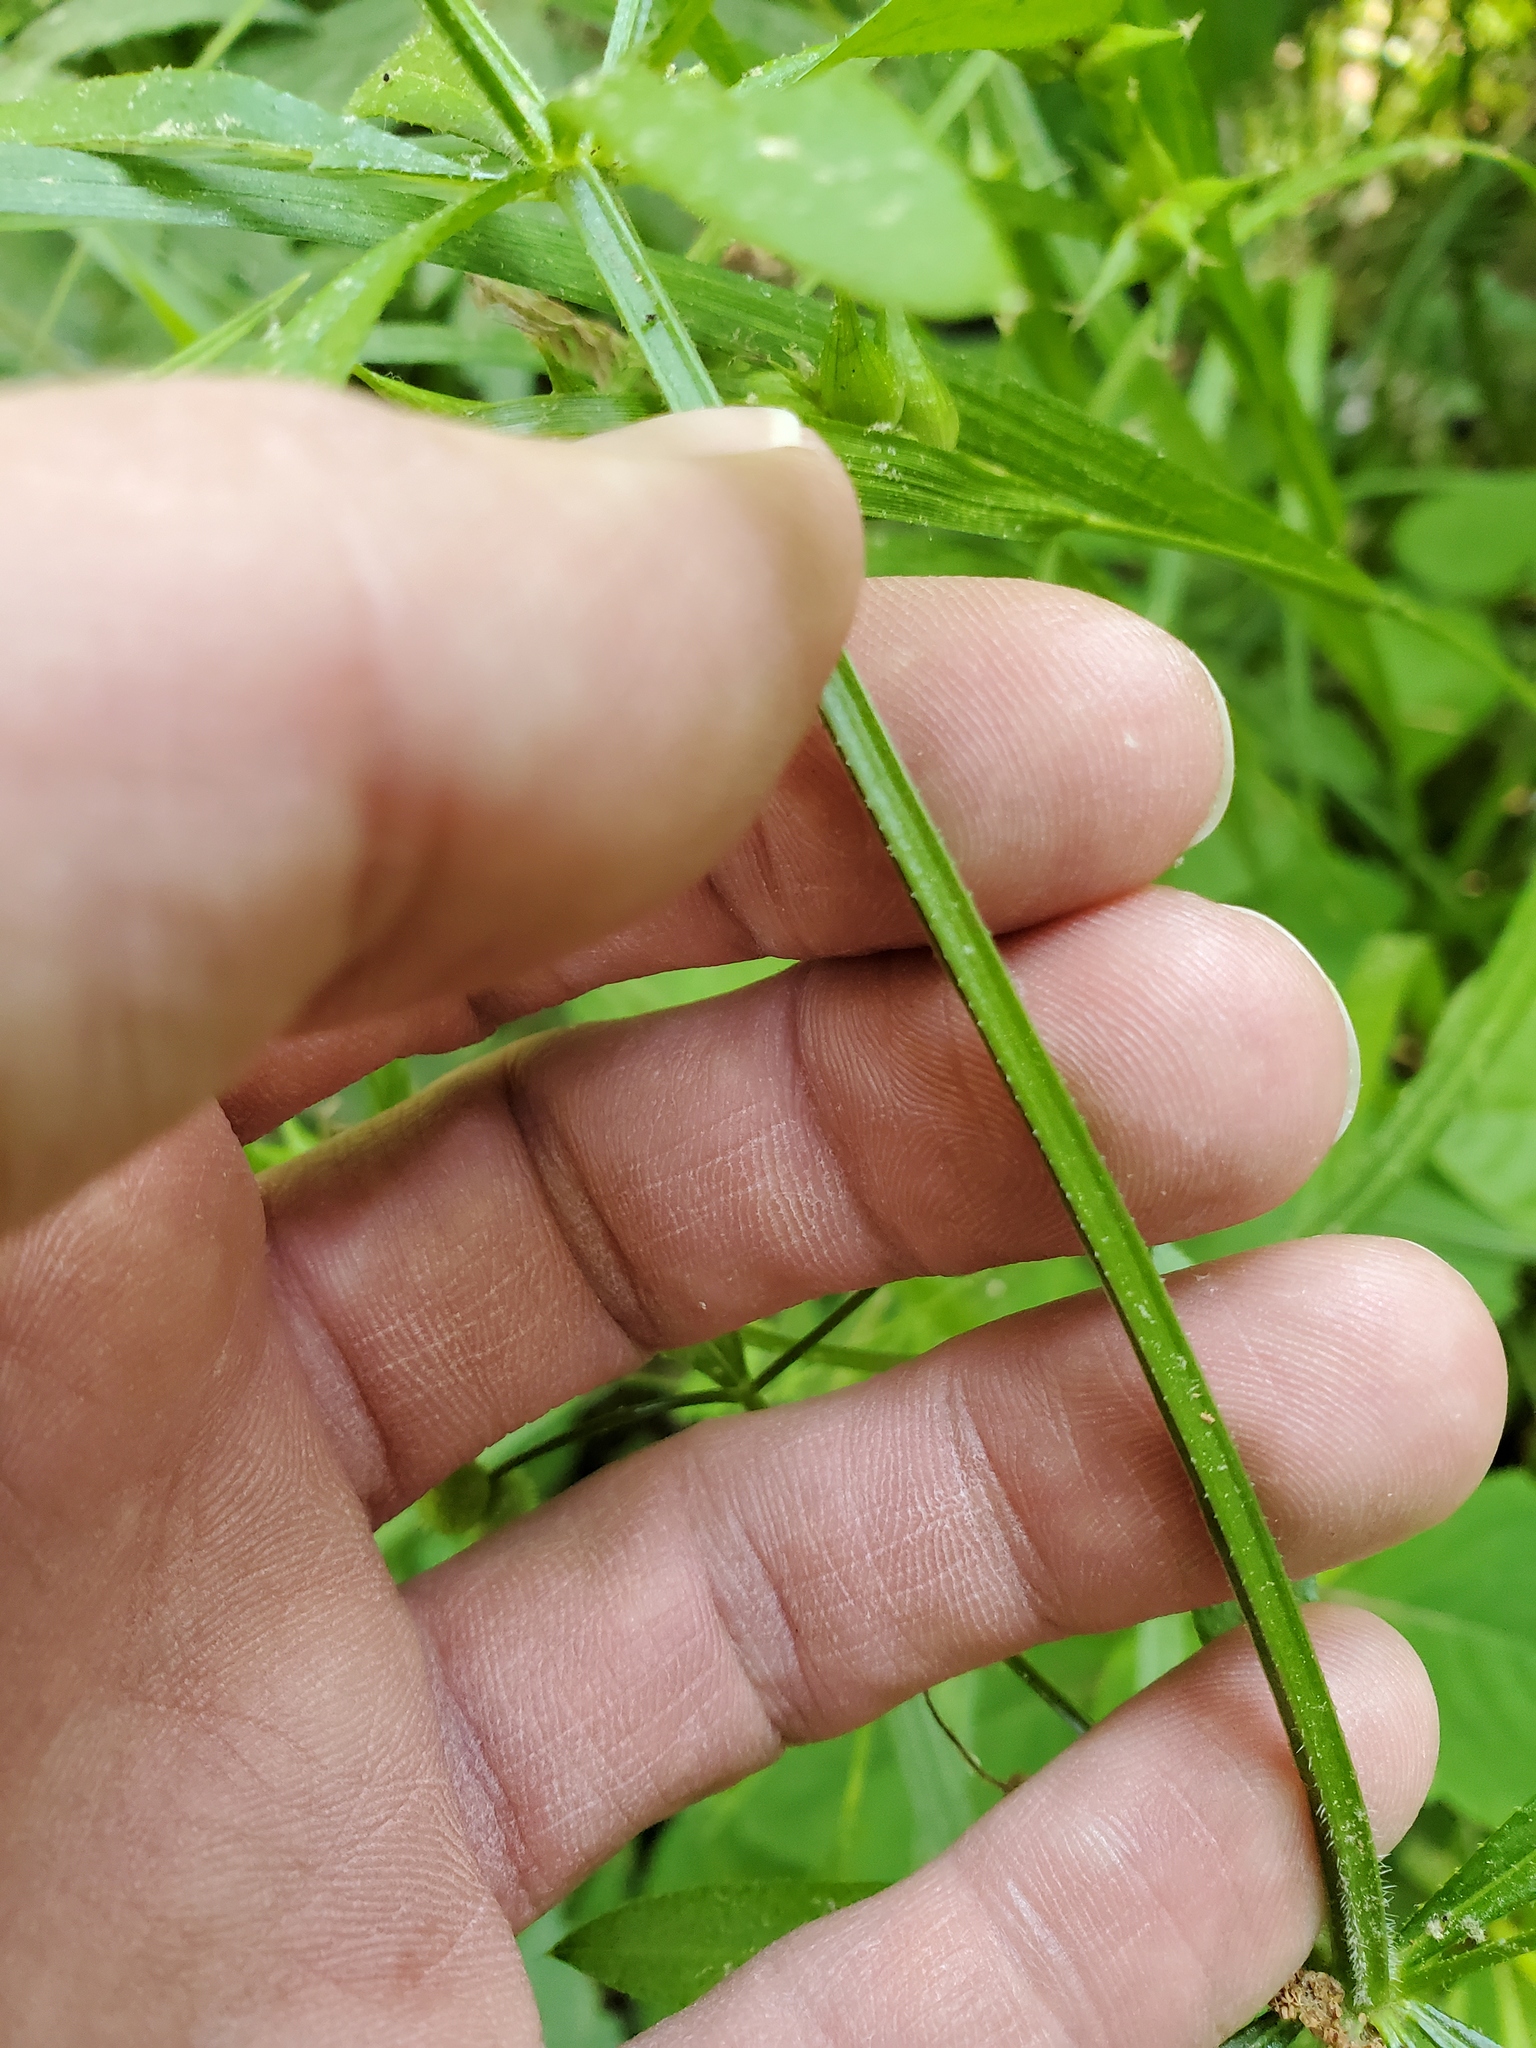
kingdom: Plantae
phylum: Tracheophyta
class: Magnoliopsida
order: Gentianales
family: Rubiaceae
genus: Galium
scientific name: Galium aparine
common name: Cleavers
